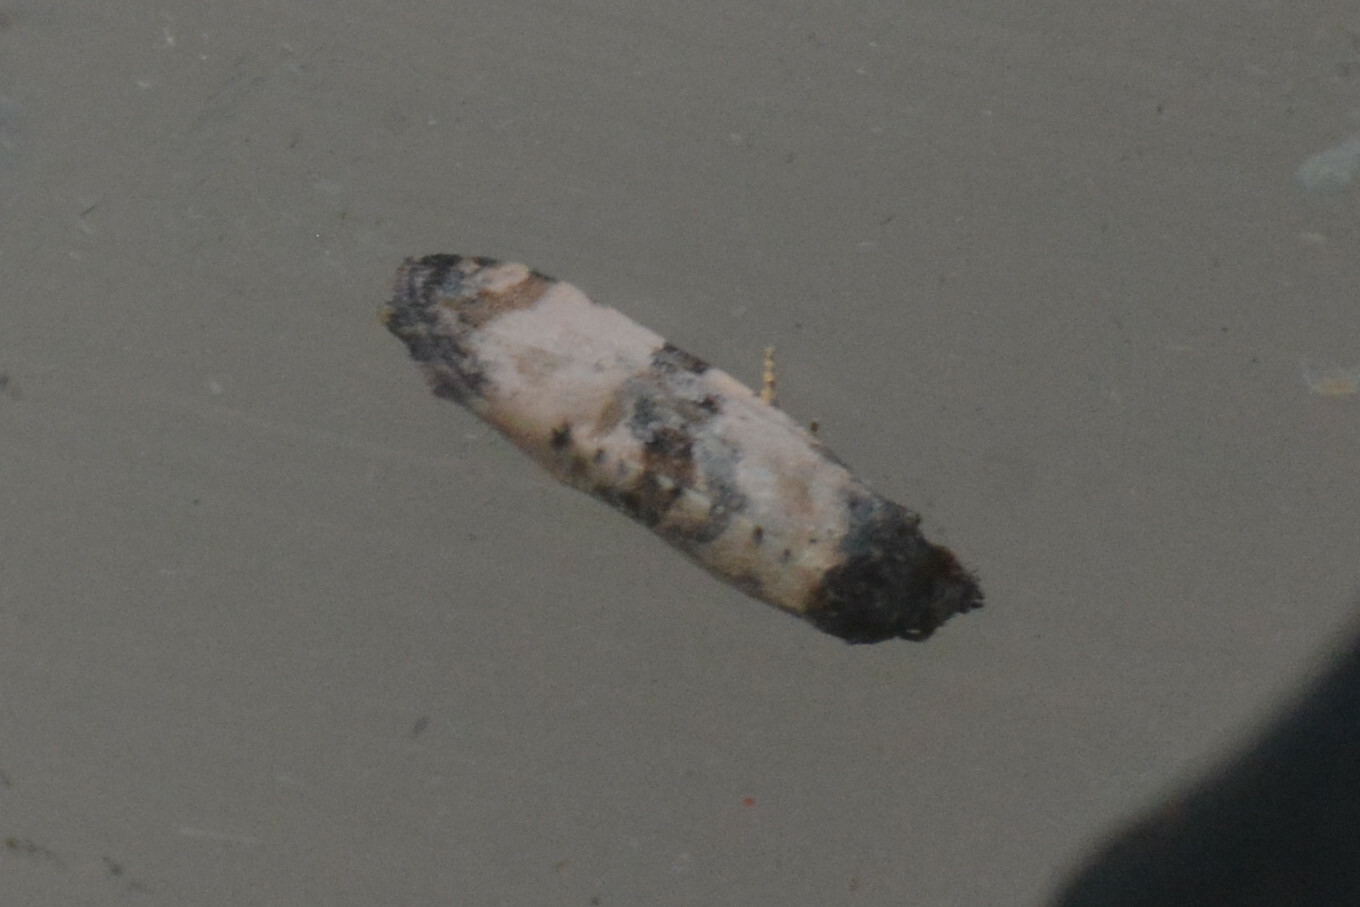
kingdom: Animalia
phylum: Arthropoda
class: Insecta
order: Lepidoptera
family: Tortricidae
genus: Cochylis
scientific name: Cochylis atricapitana
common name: Tortricid moth
